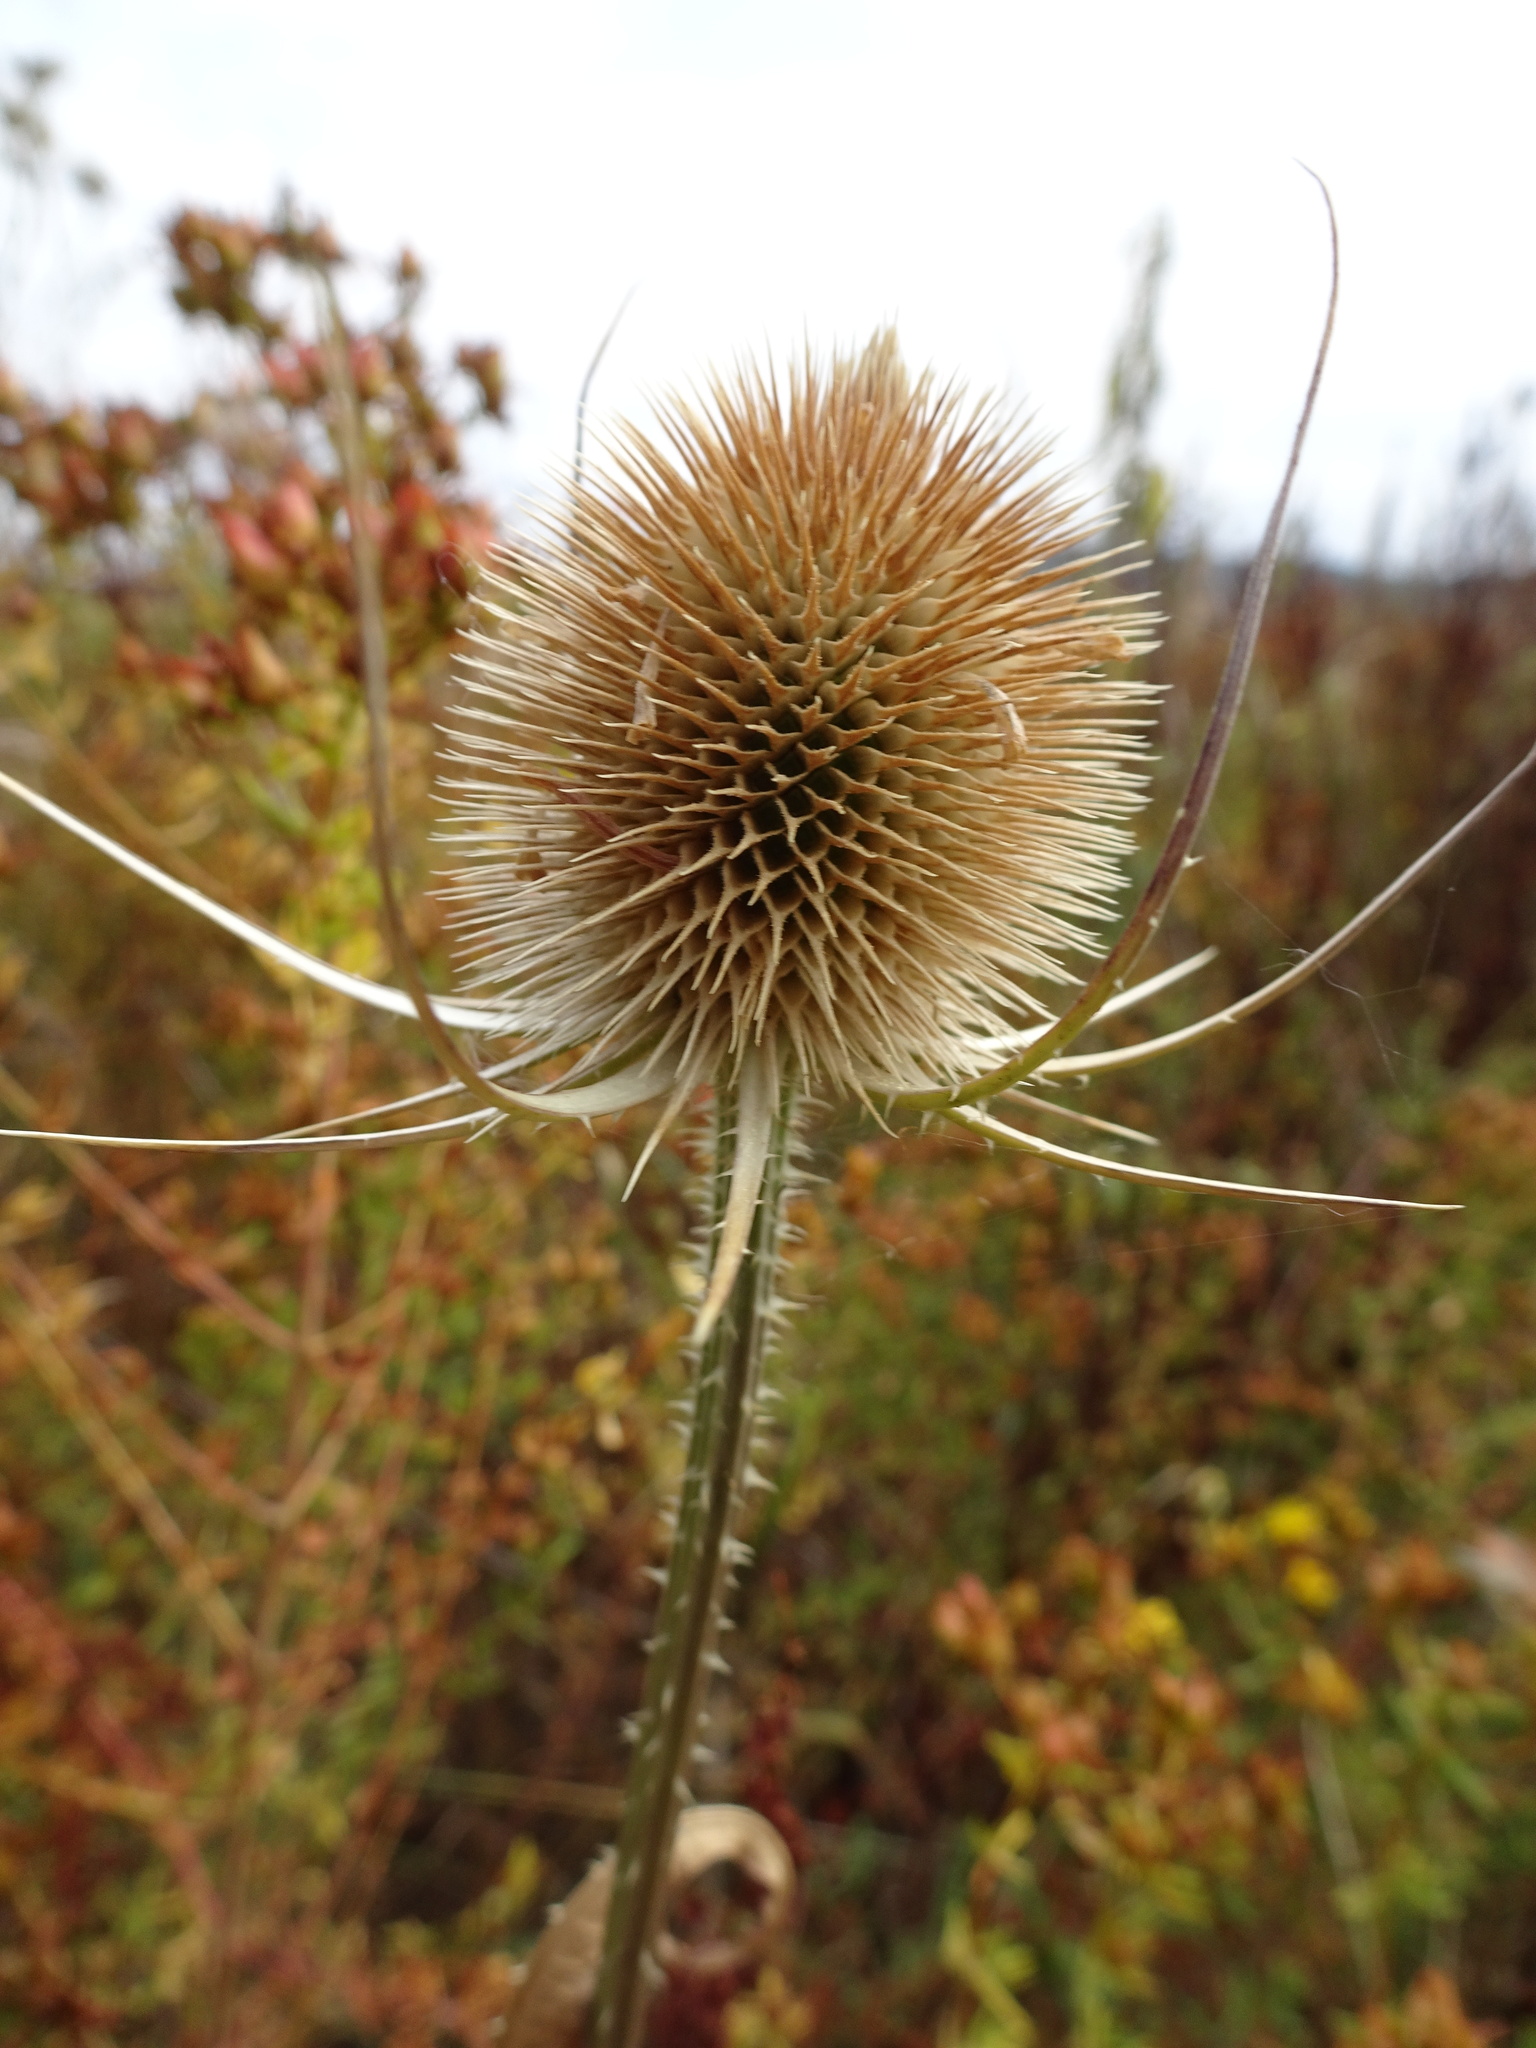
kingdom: Plantae
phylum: Tracheophyta
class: Magnoliopsida
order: Dipsacales
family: Caprifoliaceae
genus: Dipsacus
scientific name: Dipsacus fullonum
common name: Teasel
